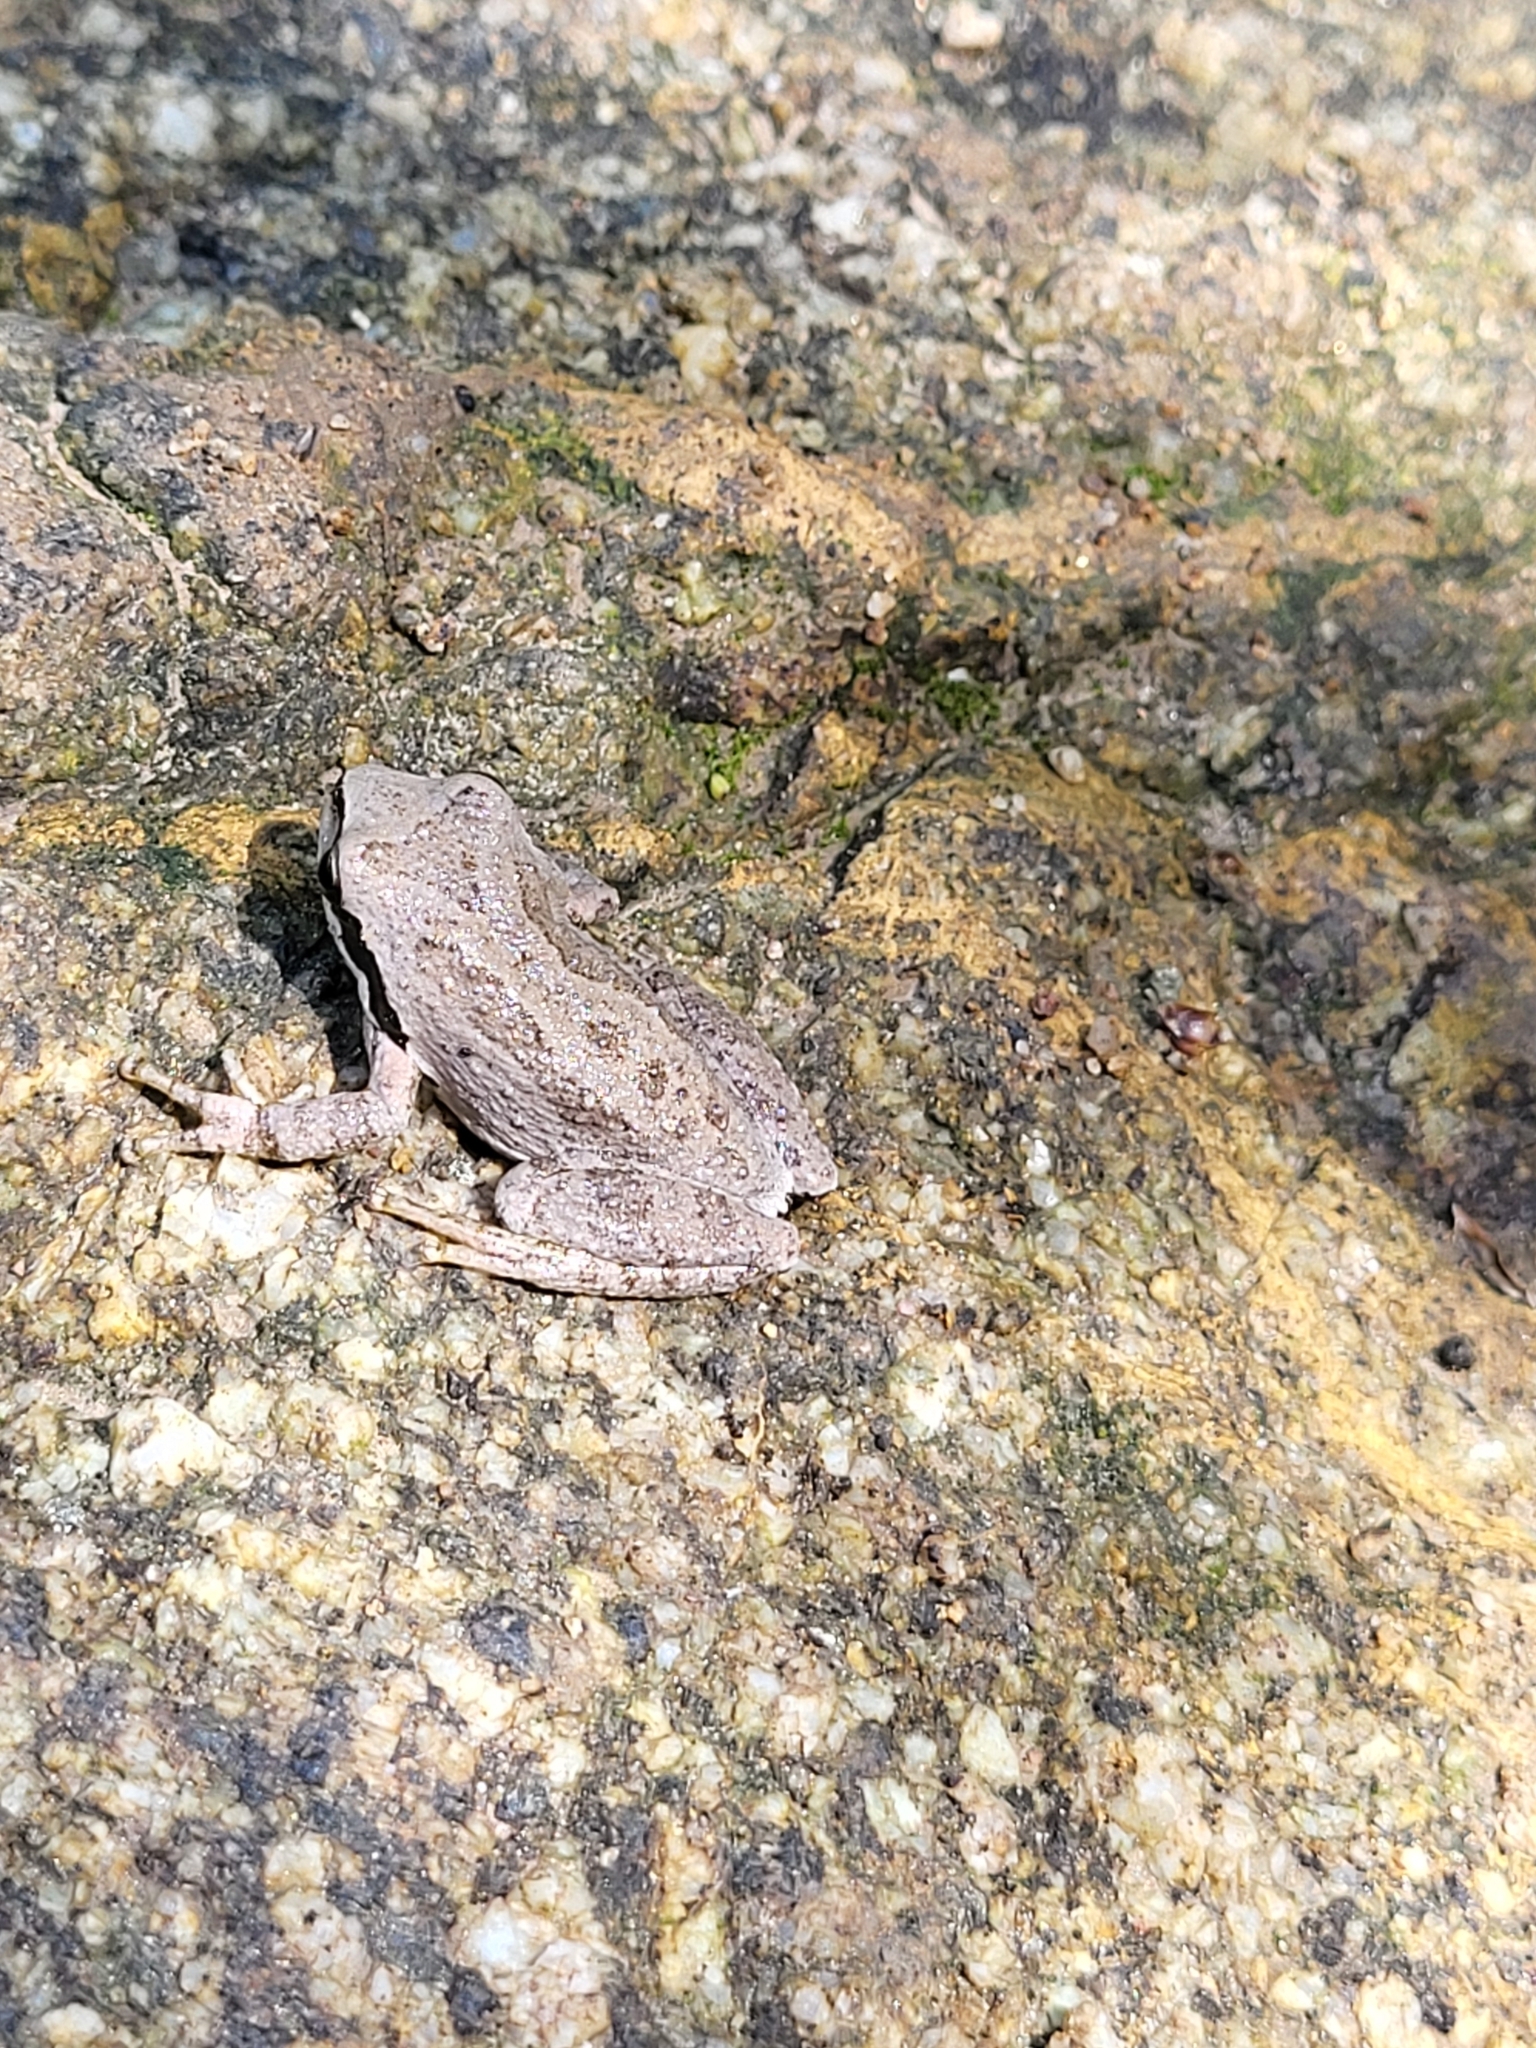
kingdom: Animalia
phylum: Chordata
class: Amphibia
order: Anura
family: Hylidae
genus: Pseudacris
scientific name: Pseudacris regilla
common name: Pacific chorus frog
